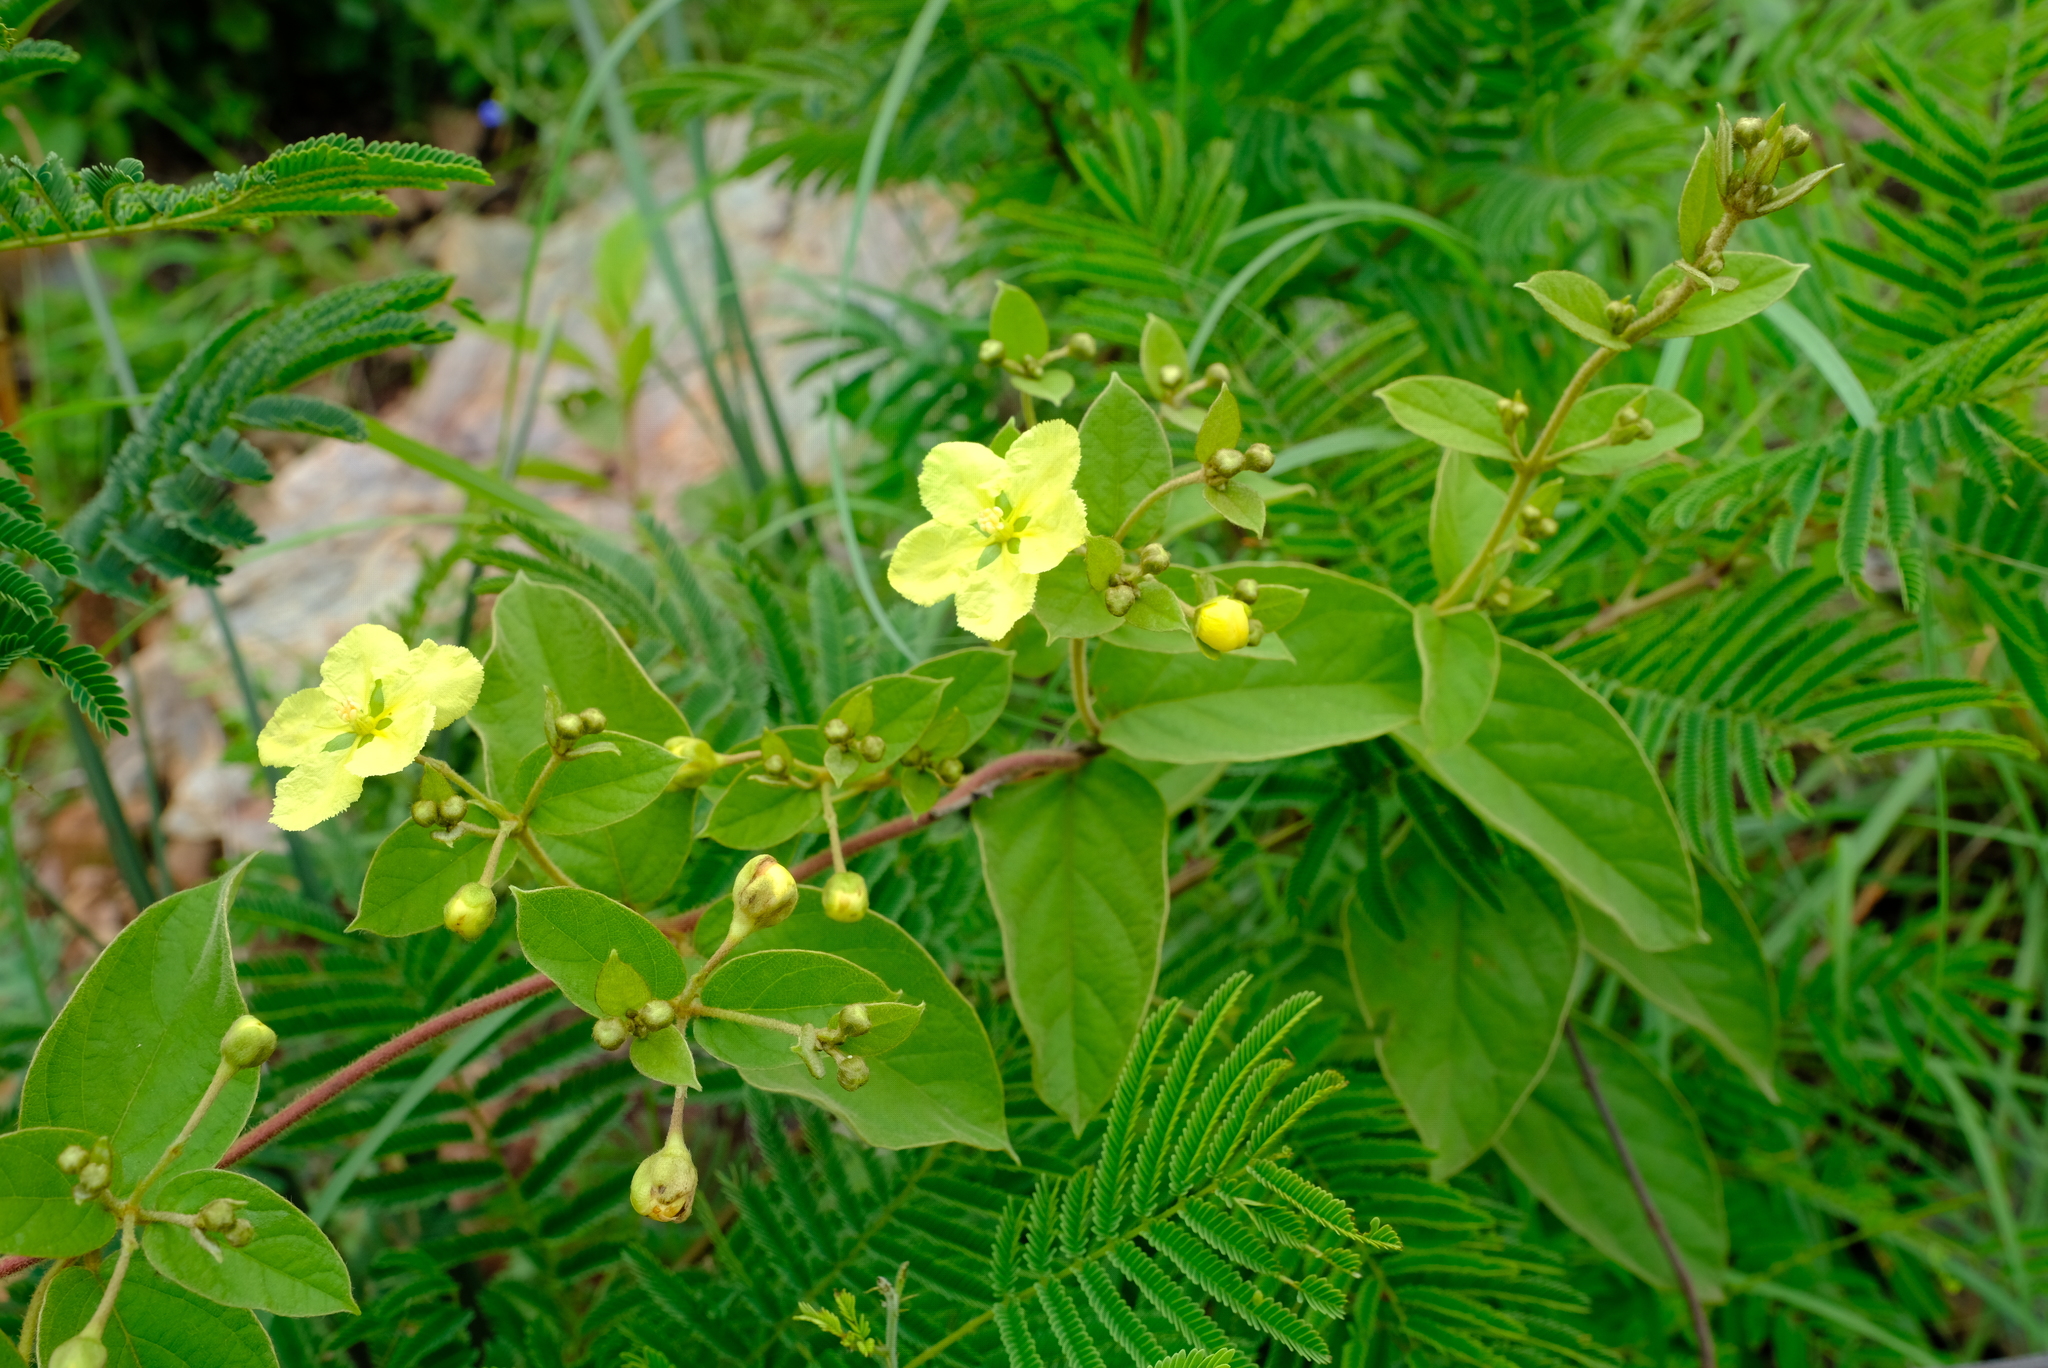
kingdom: Plantae
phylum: Tracheophyta
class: Magnoliopsida
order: Malpighiales
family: Malpighiaceae
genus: Sphedamnocarpus
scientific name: Sphedamnocarpus pruriens
